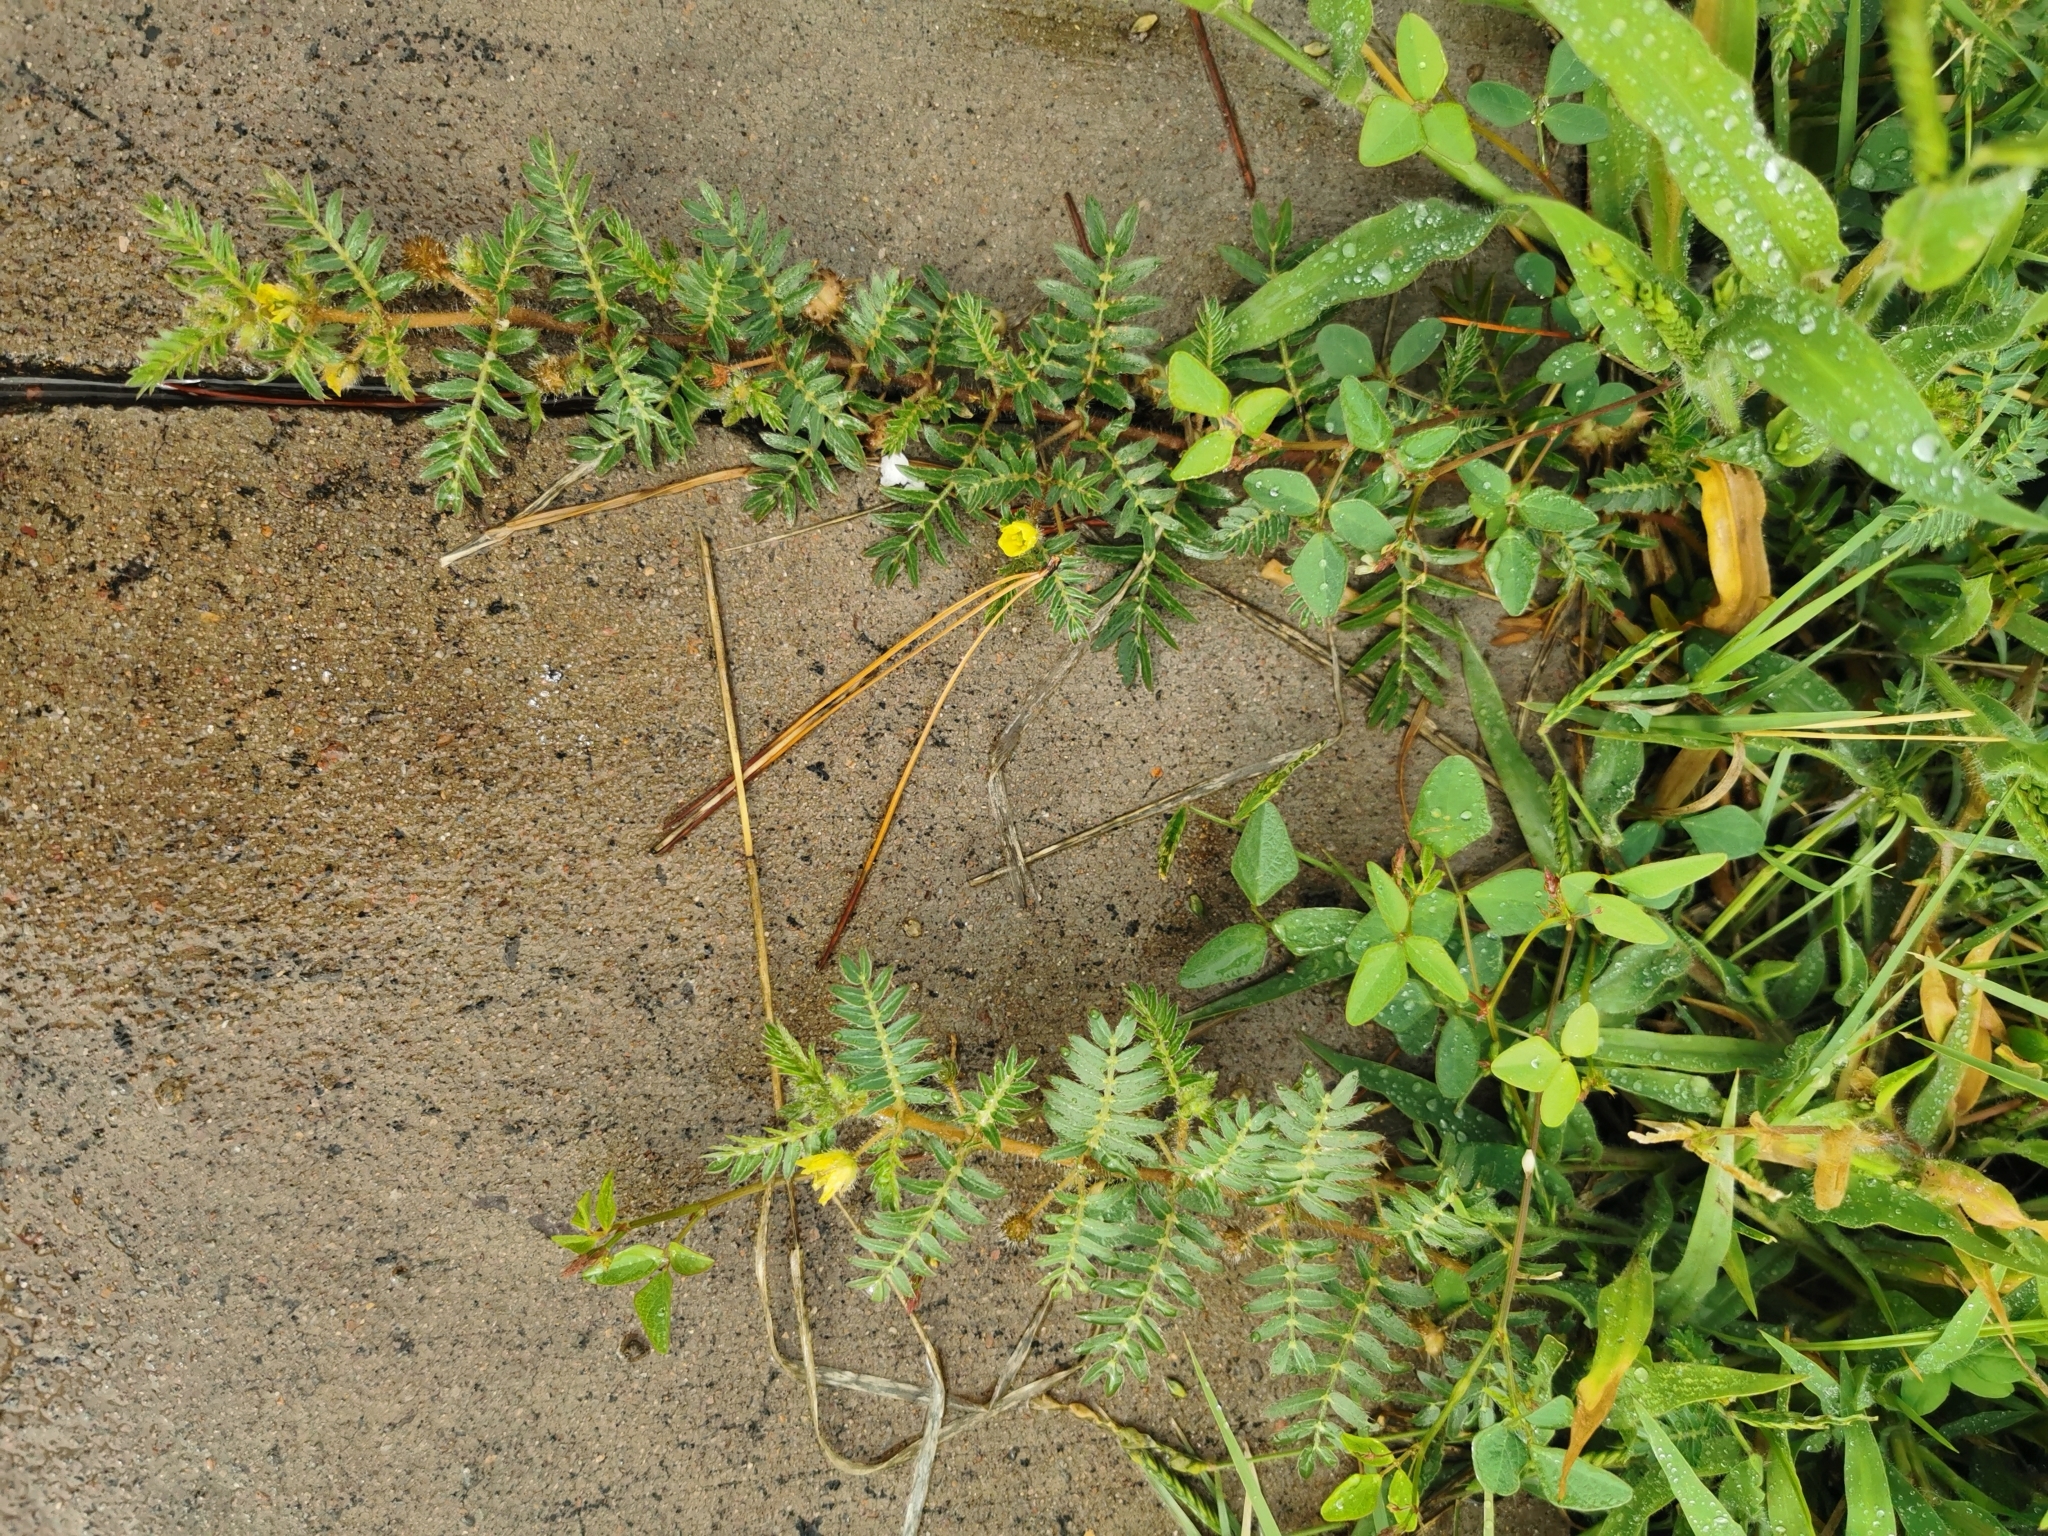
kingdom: Plantae
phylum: Tracheophyta
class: Magnoliopsida
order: Zygophyllales
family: Zygophyllaceae
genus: Tribulus
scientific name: Tribulus terrestris
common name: Puncturevine
